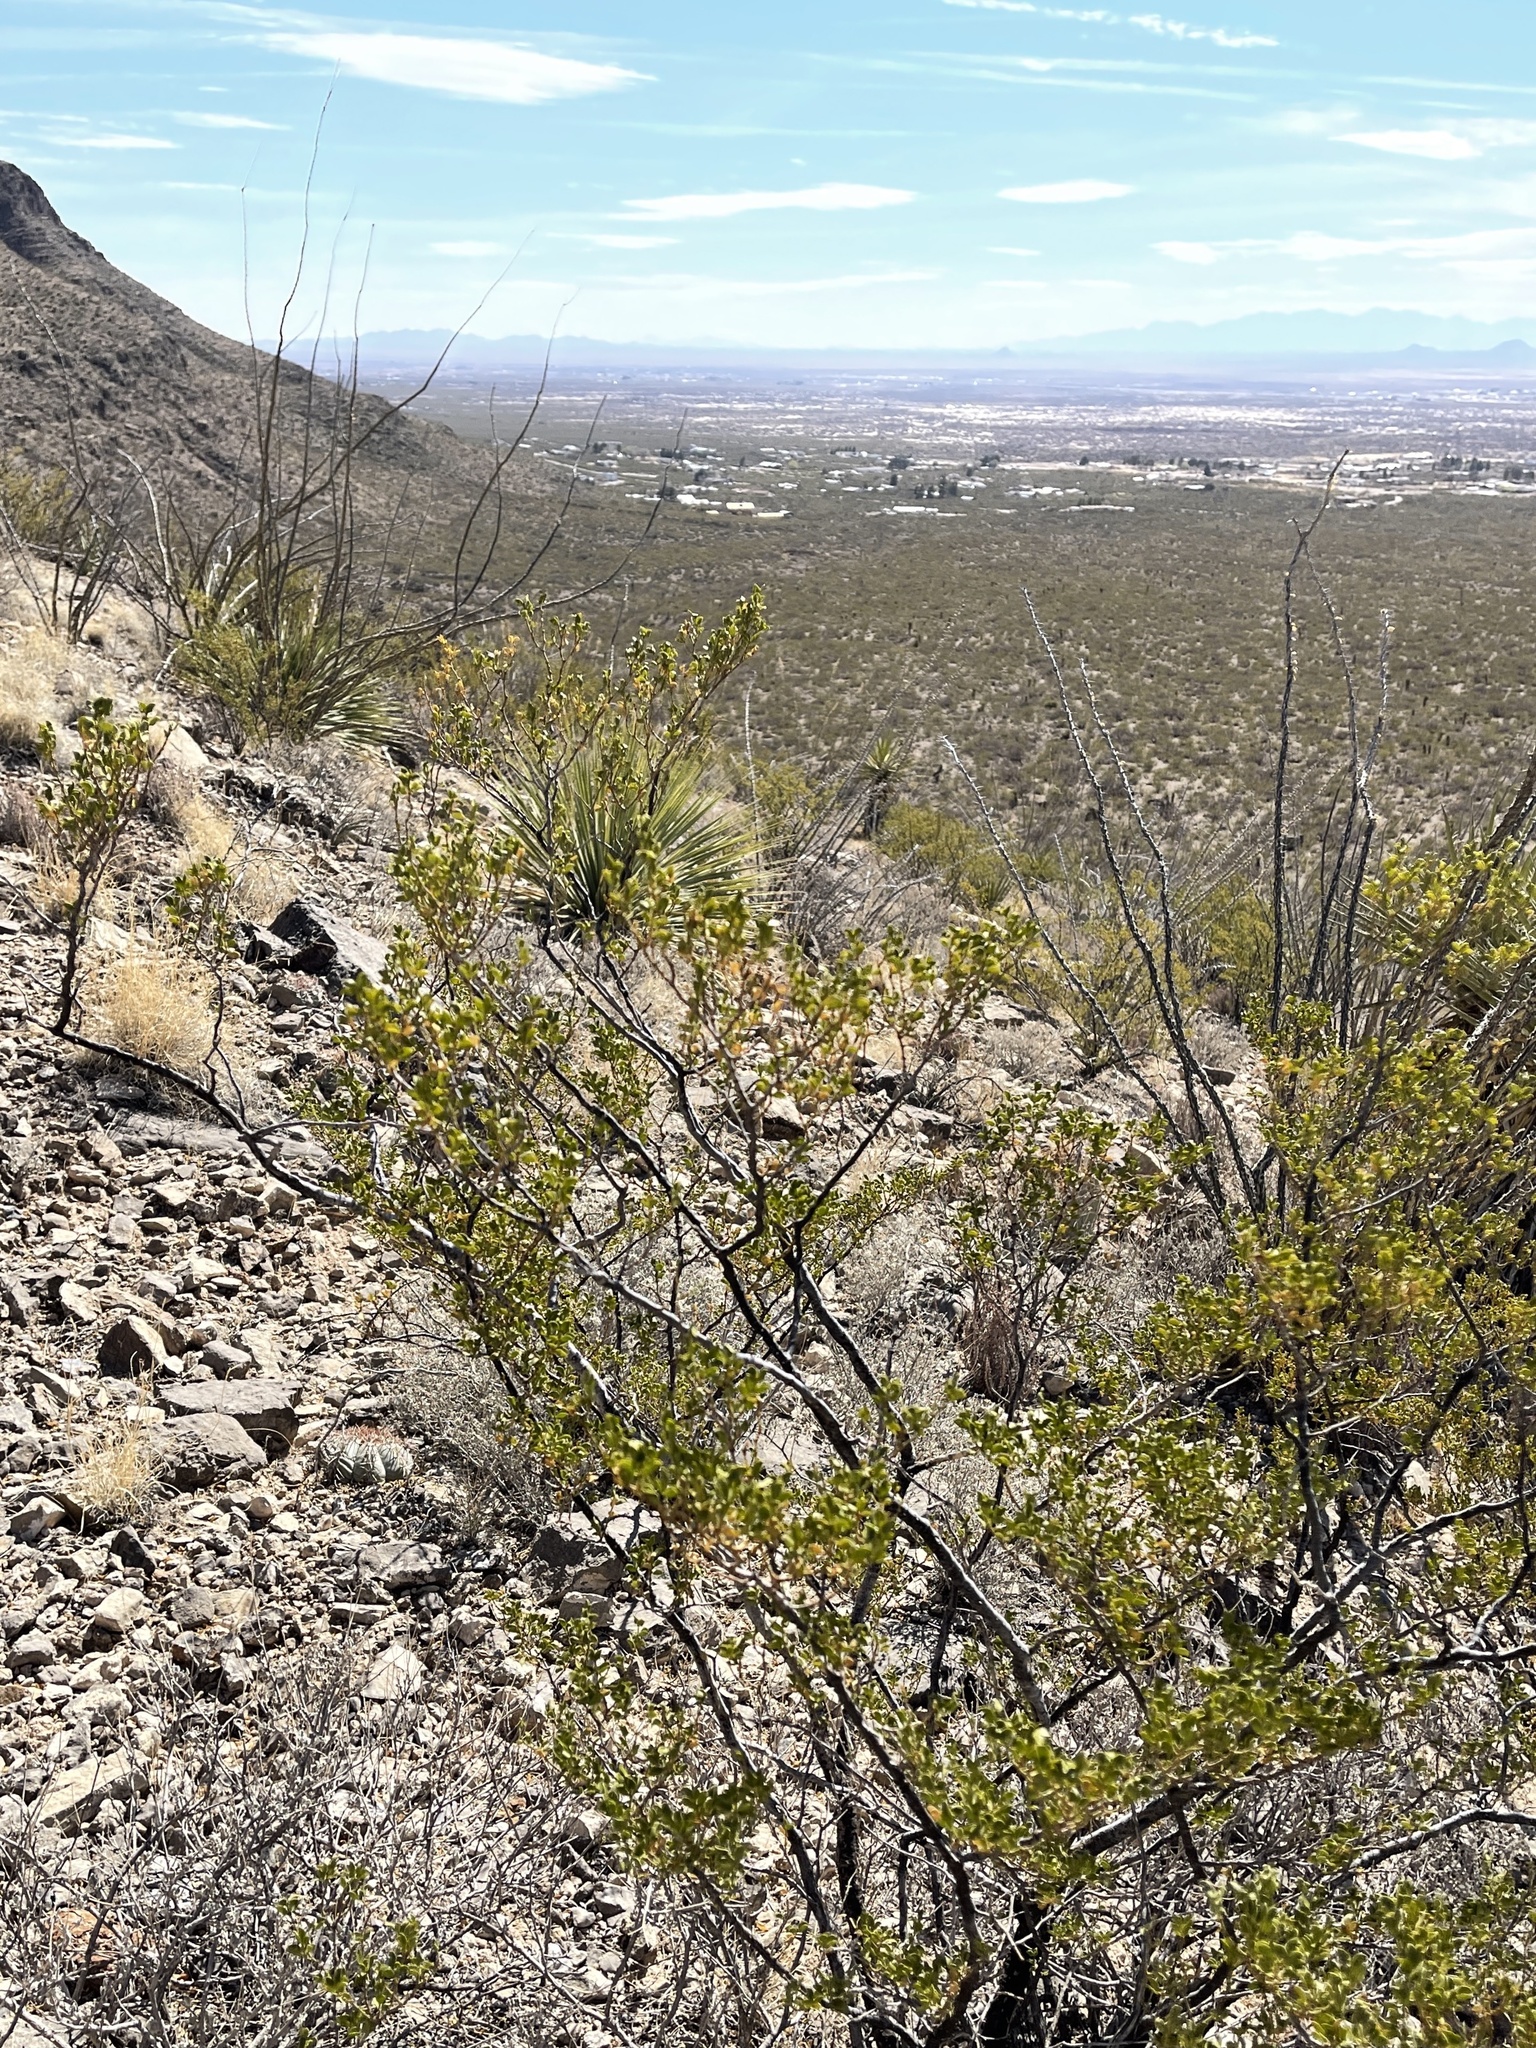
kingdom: Plantae
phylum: Tracheophyta
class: Magnoliopsida
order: Zygophyllales
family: Zygophyllaceae
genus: Larrea
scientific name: Larrea tridentata
